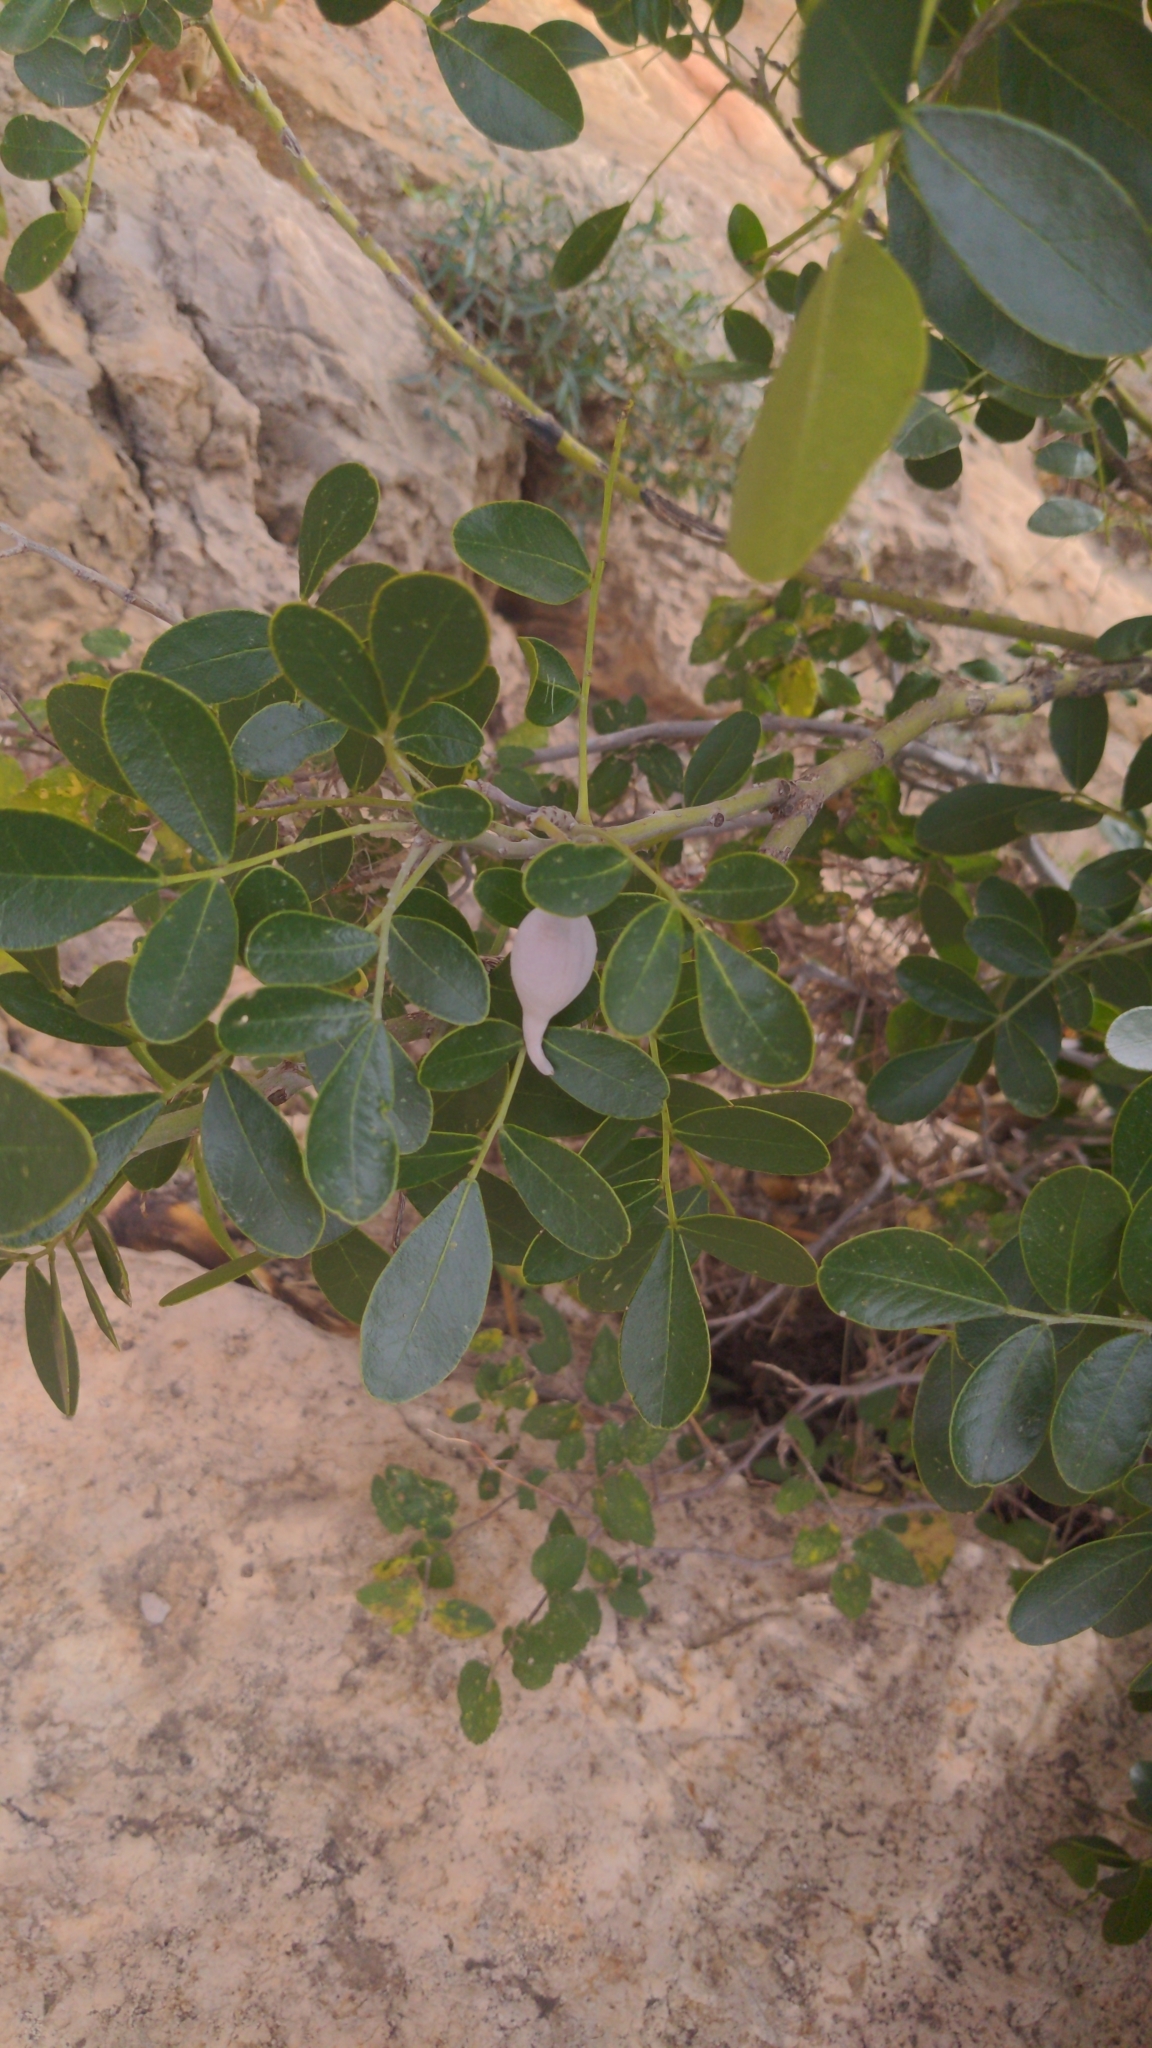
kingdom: Plantae
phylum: Tracheophyta
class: Magnoliopsida
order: Fabales
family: Fabaceae
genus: Dermatophyllum
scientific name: Dermatophyllum secundiflorum
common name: Texas-mountain-laurel
